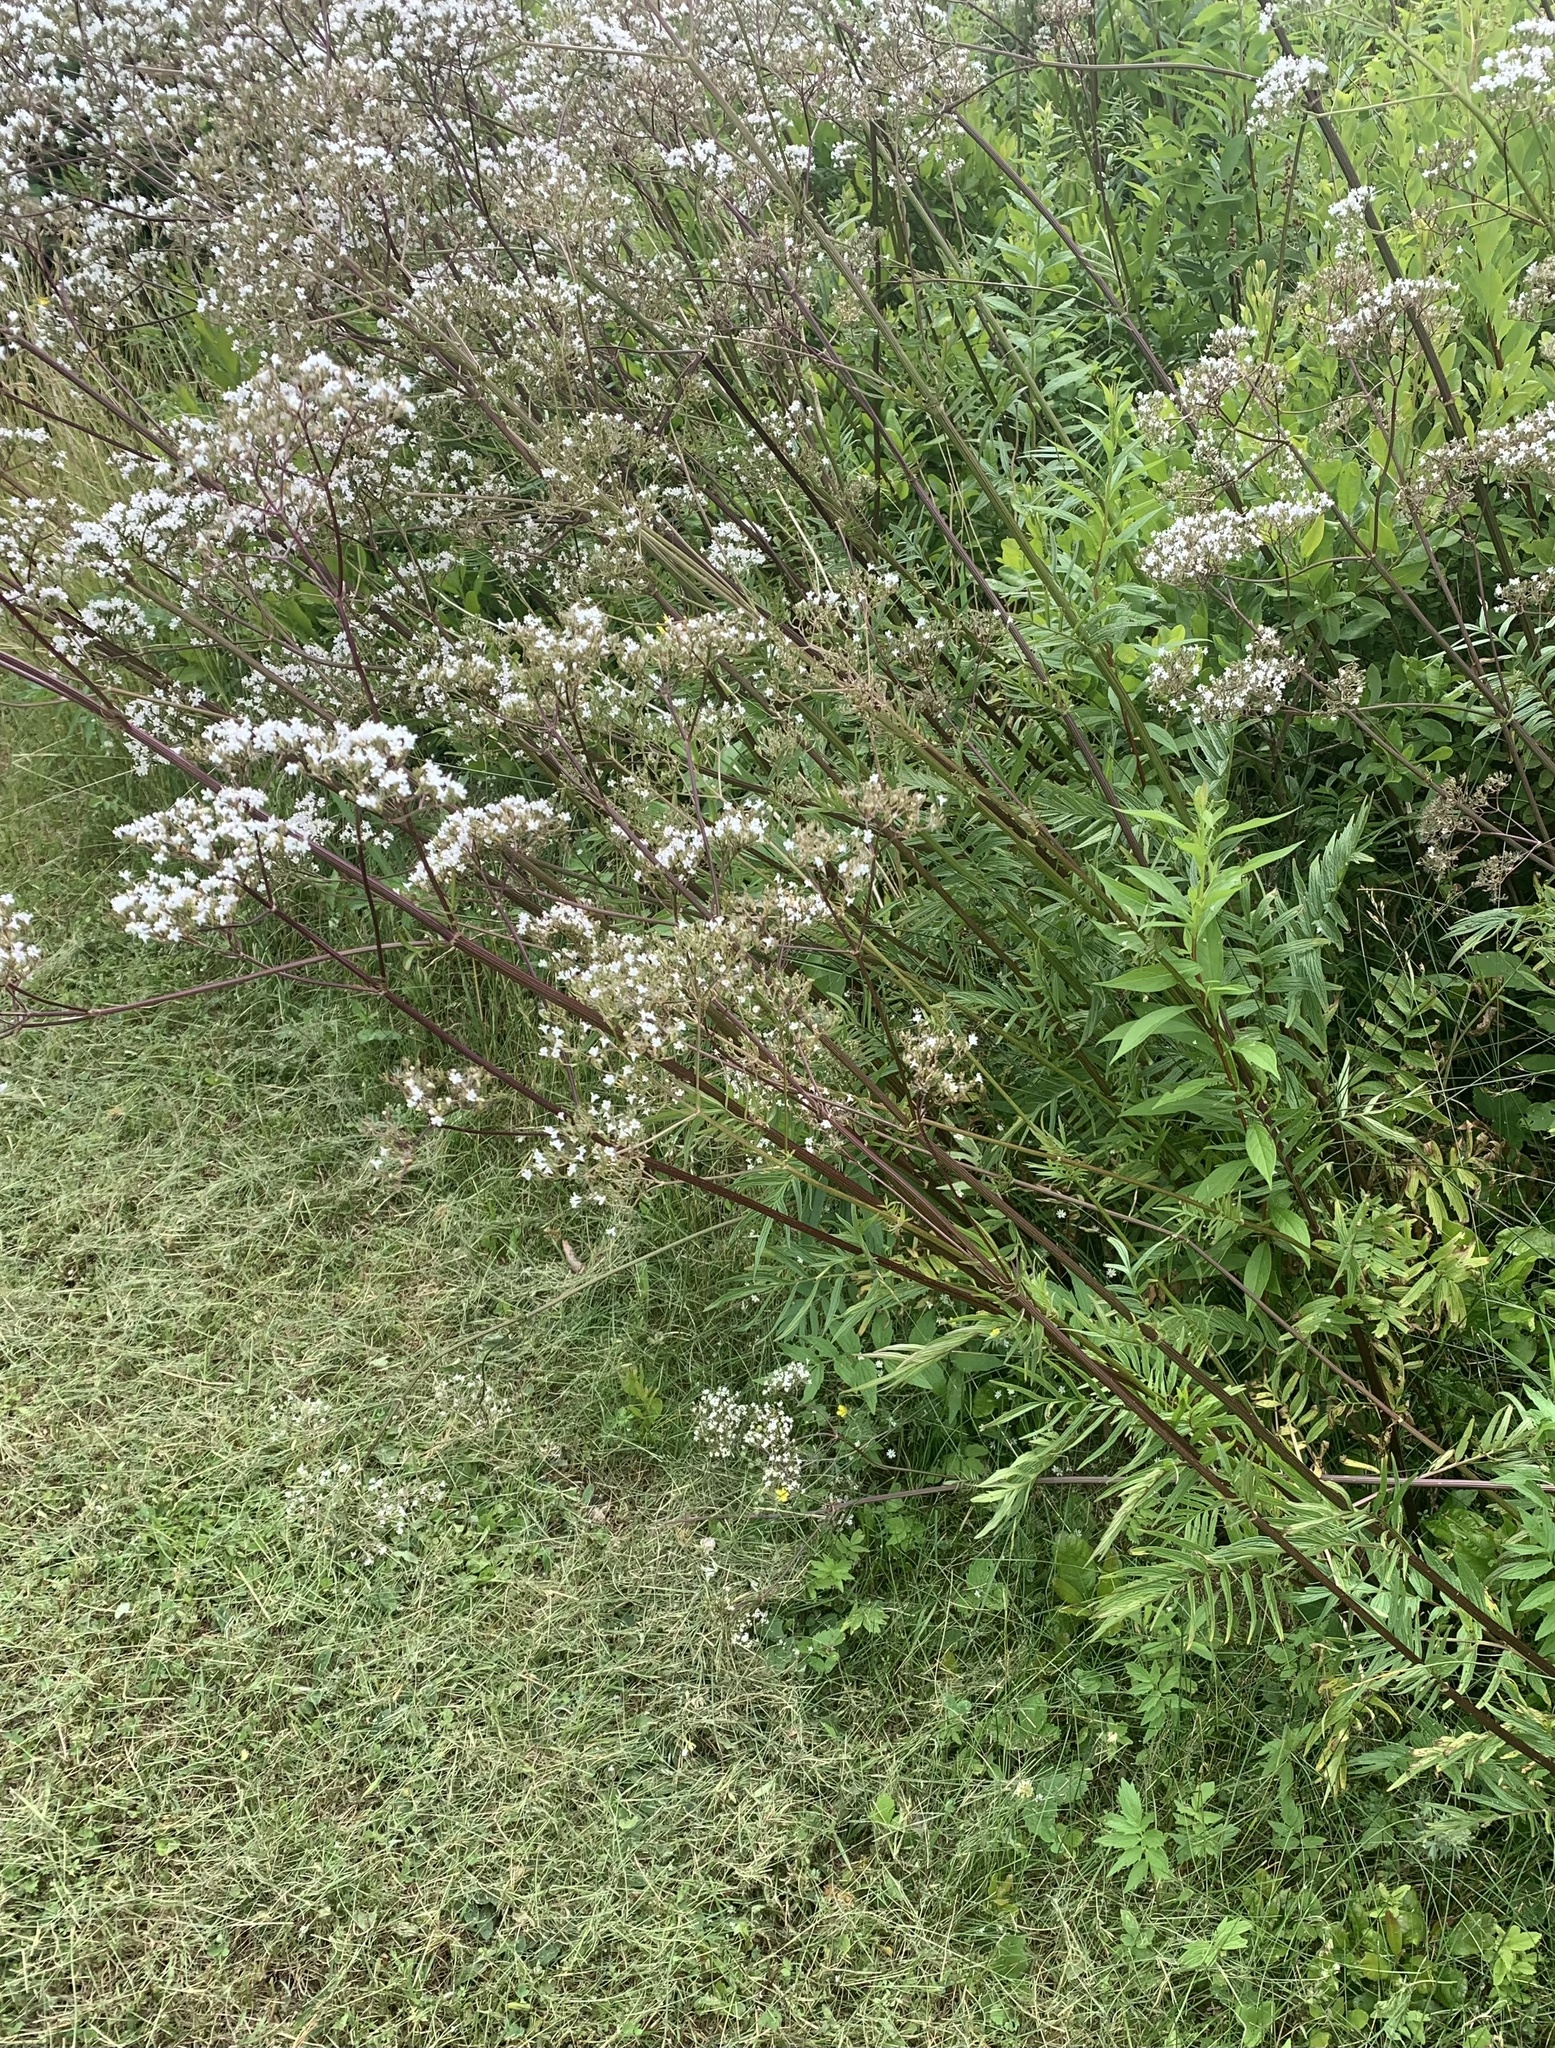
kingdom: Plantae
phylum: Tracheophyta
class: Magnoliopsida
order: Dipsacales
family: Caprifoliaceae
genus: Valeriana
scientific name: Valeriana officinalis
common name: Common valerian
